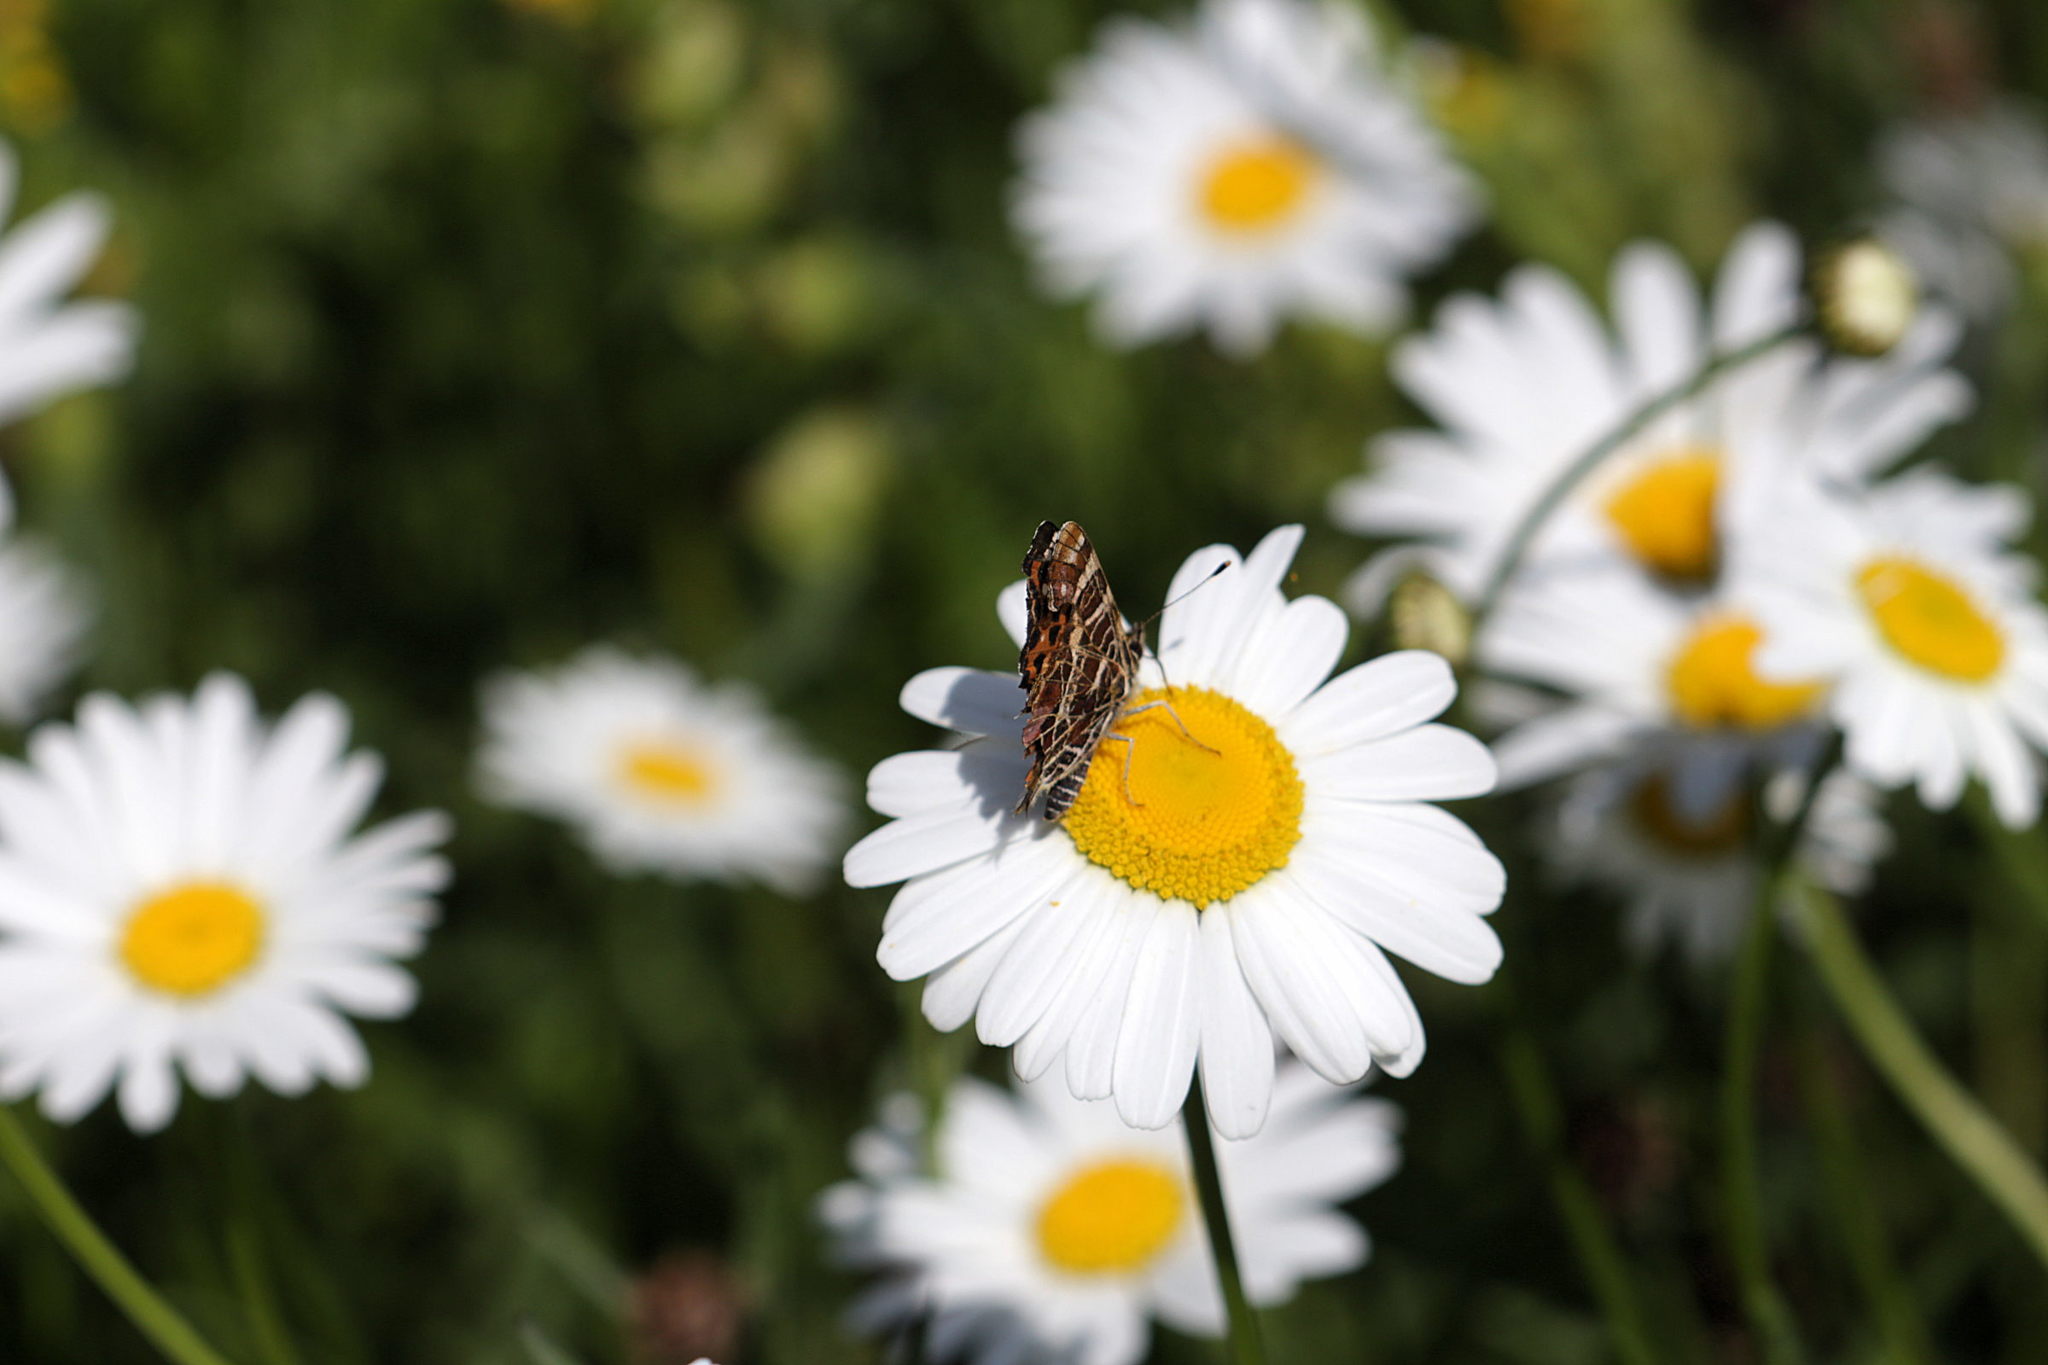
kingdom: Animalia
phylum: Arthropoda
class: Insecta
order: Lepidoptera
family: Nymphalidae
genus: Araschnia
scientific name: Araschnia levana
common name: Map butterfly
